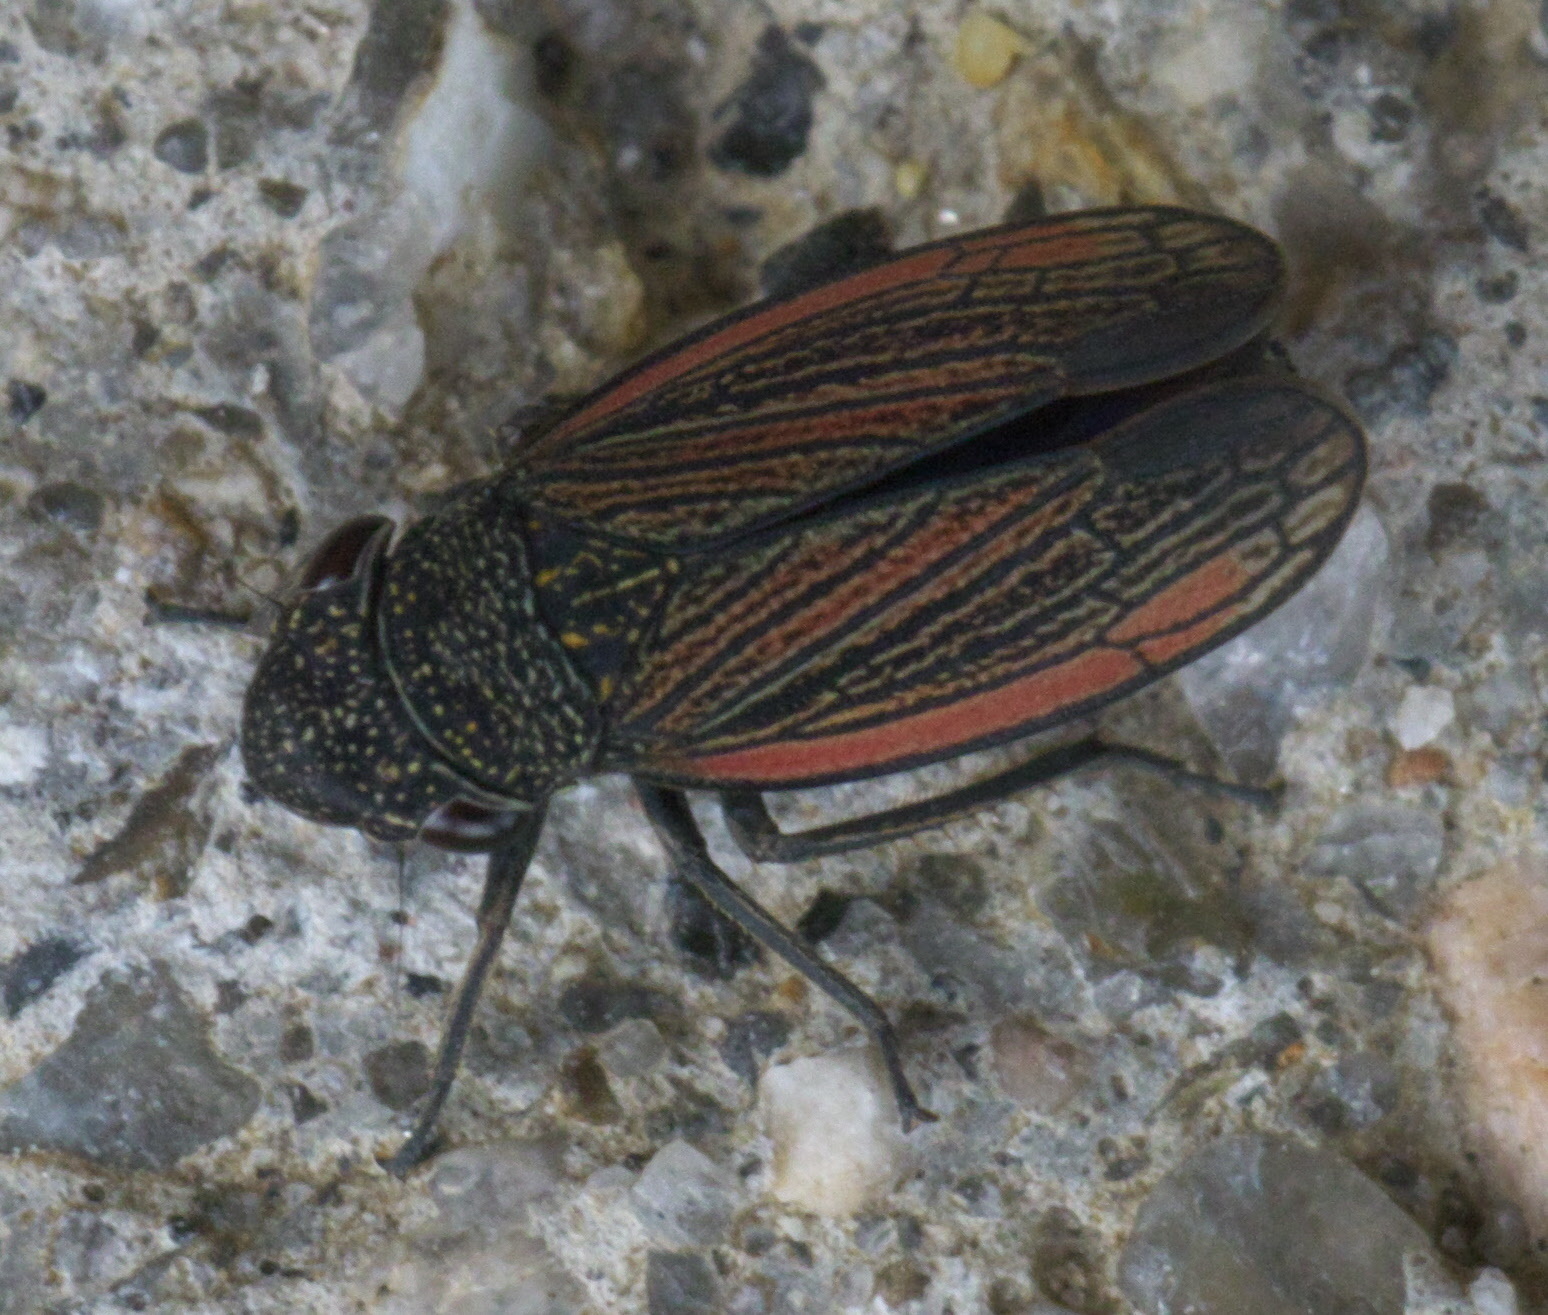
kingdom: Animalia
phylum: Arthropoda
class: Insecta
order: Hemiptera
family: Cicadellidae
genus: Cuerna
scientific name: Cuerna striata
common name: Striped leafhopper
